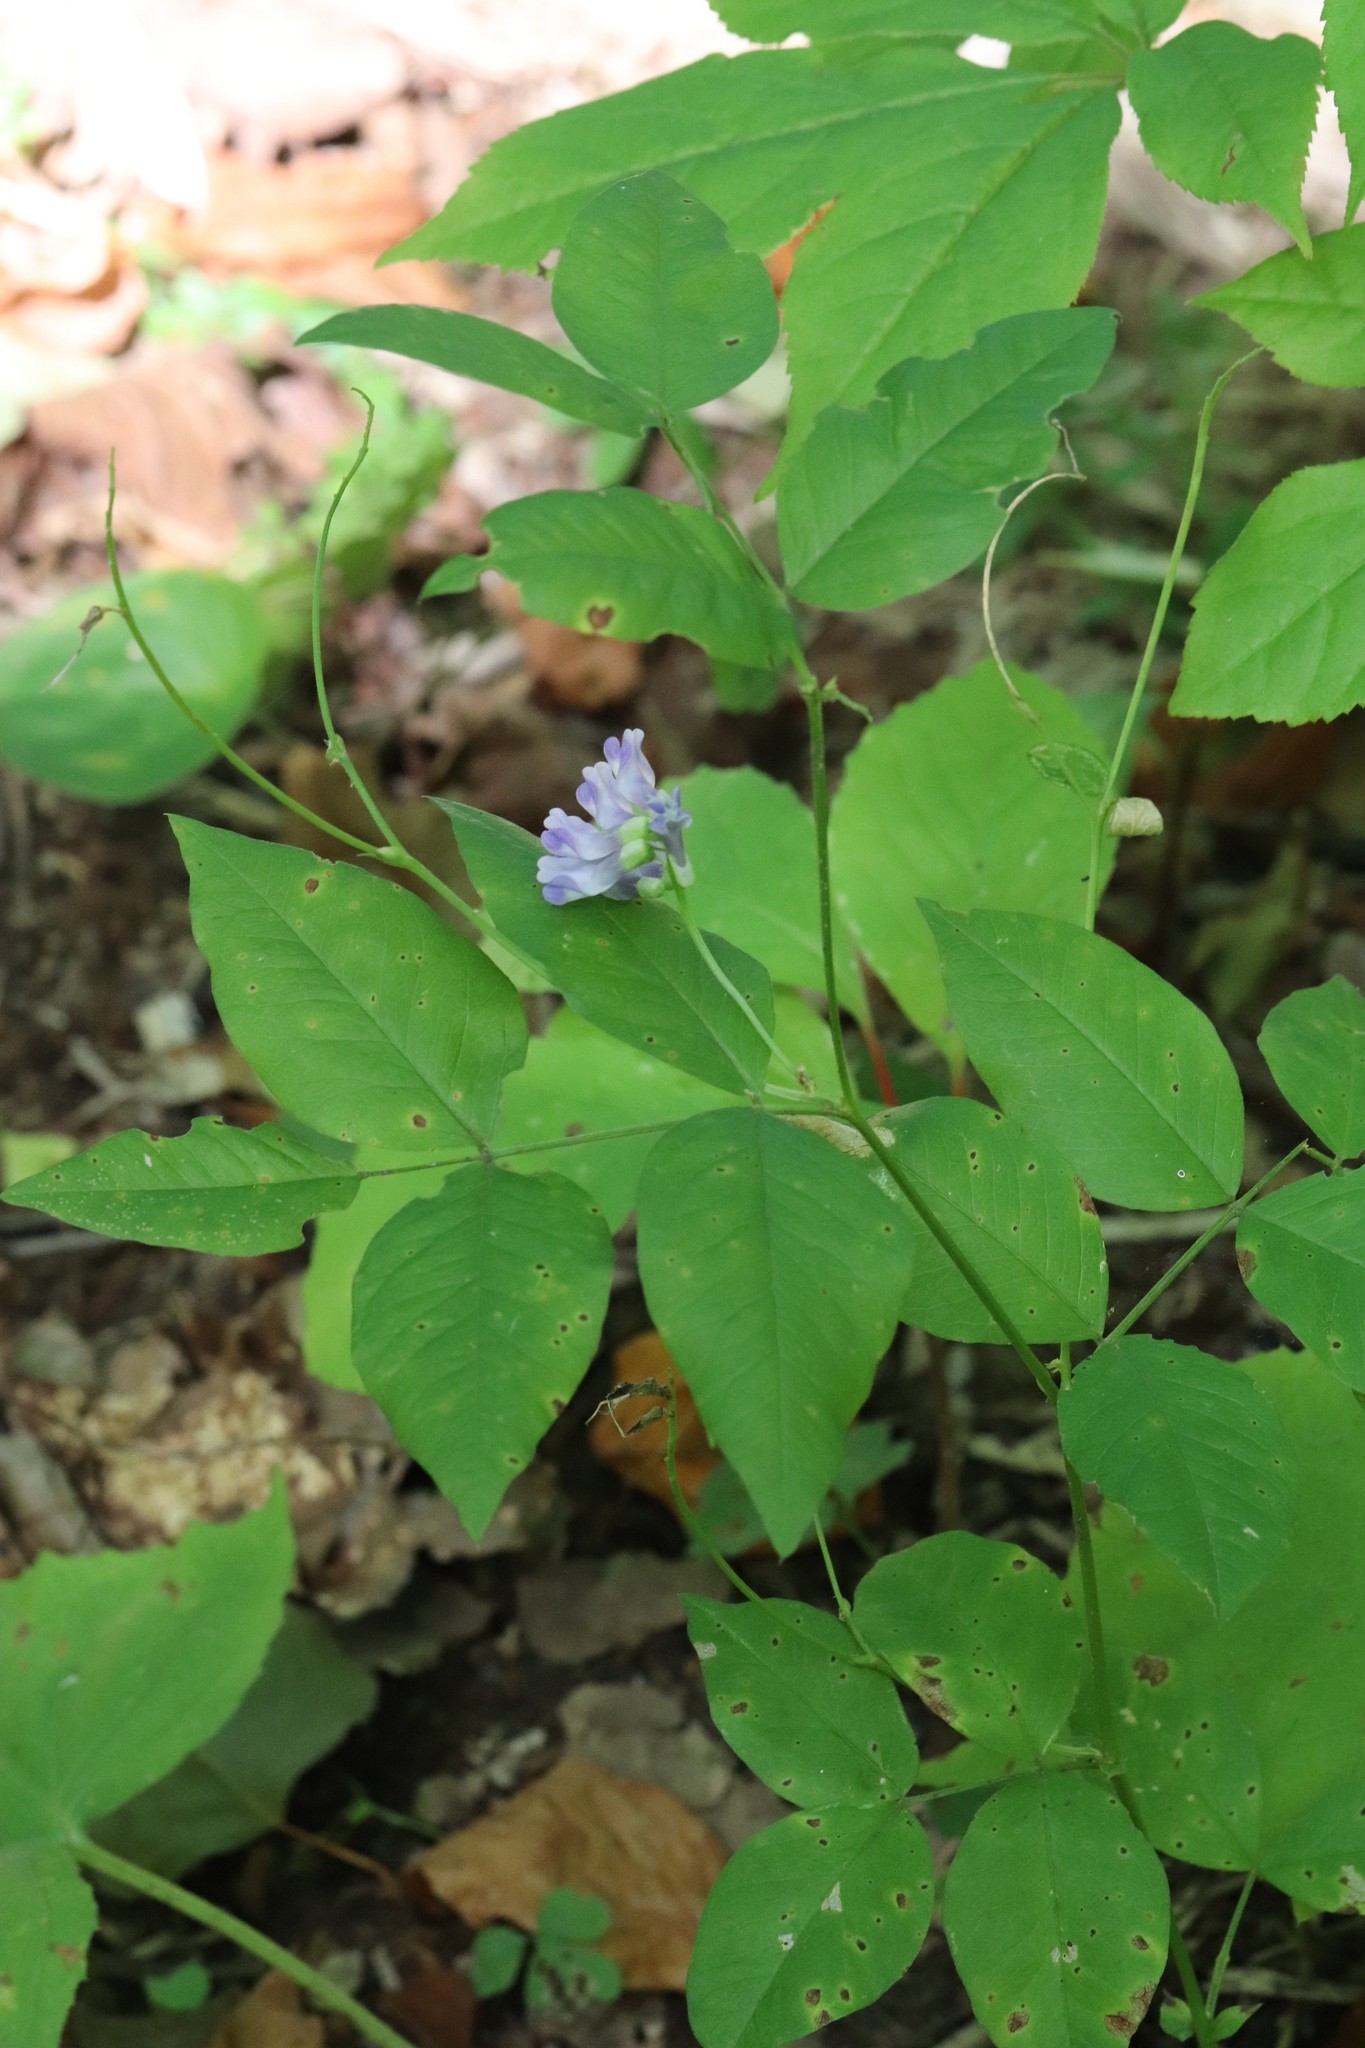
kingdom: Plantae
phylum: Tracheophyta
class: Magnoliopsida
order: Fabales
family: Fabaceae
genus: Vicia
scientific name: Vicia ramuliflora
